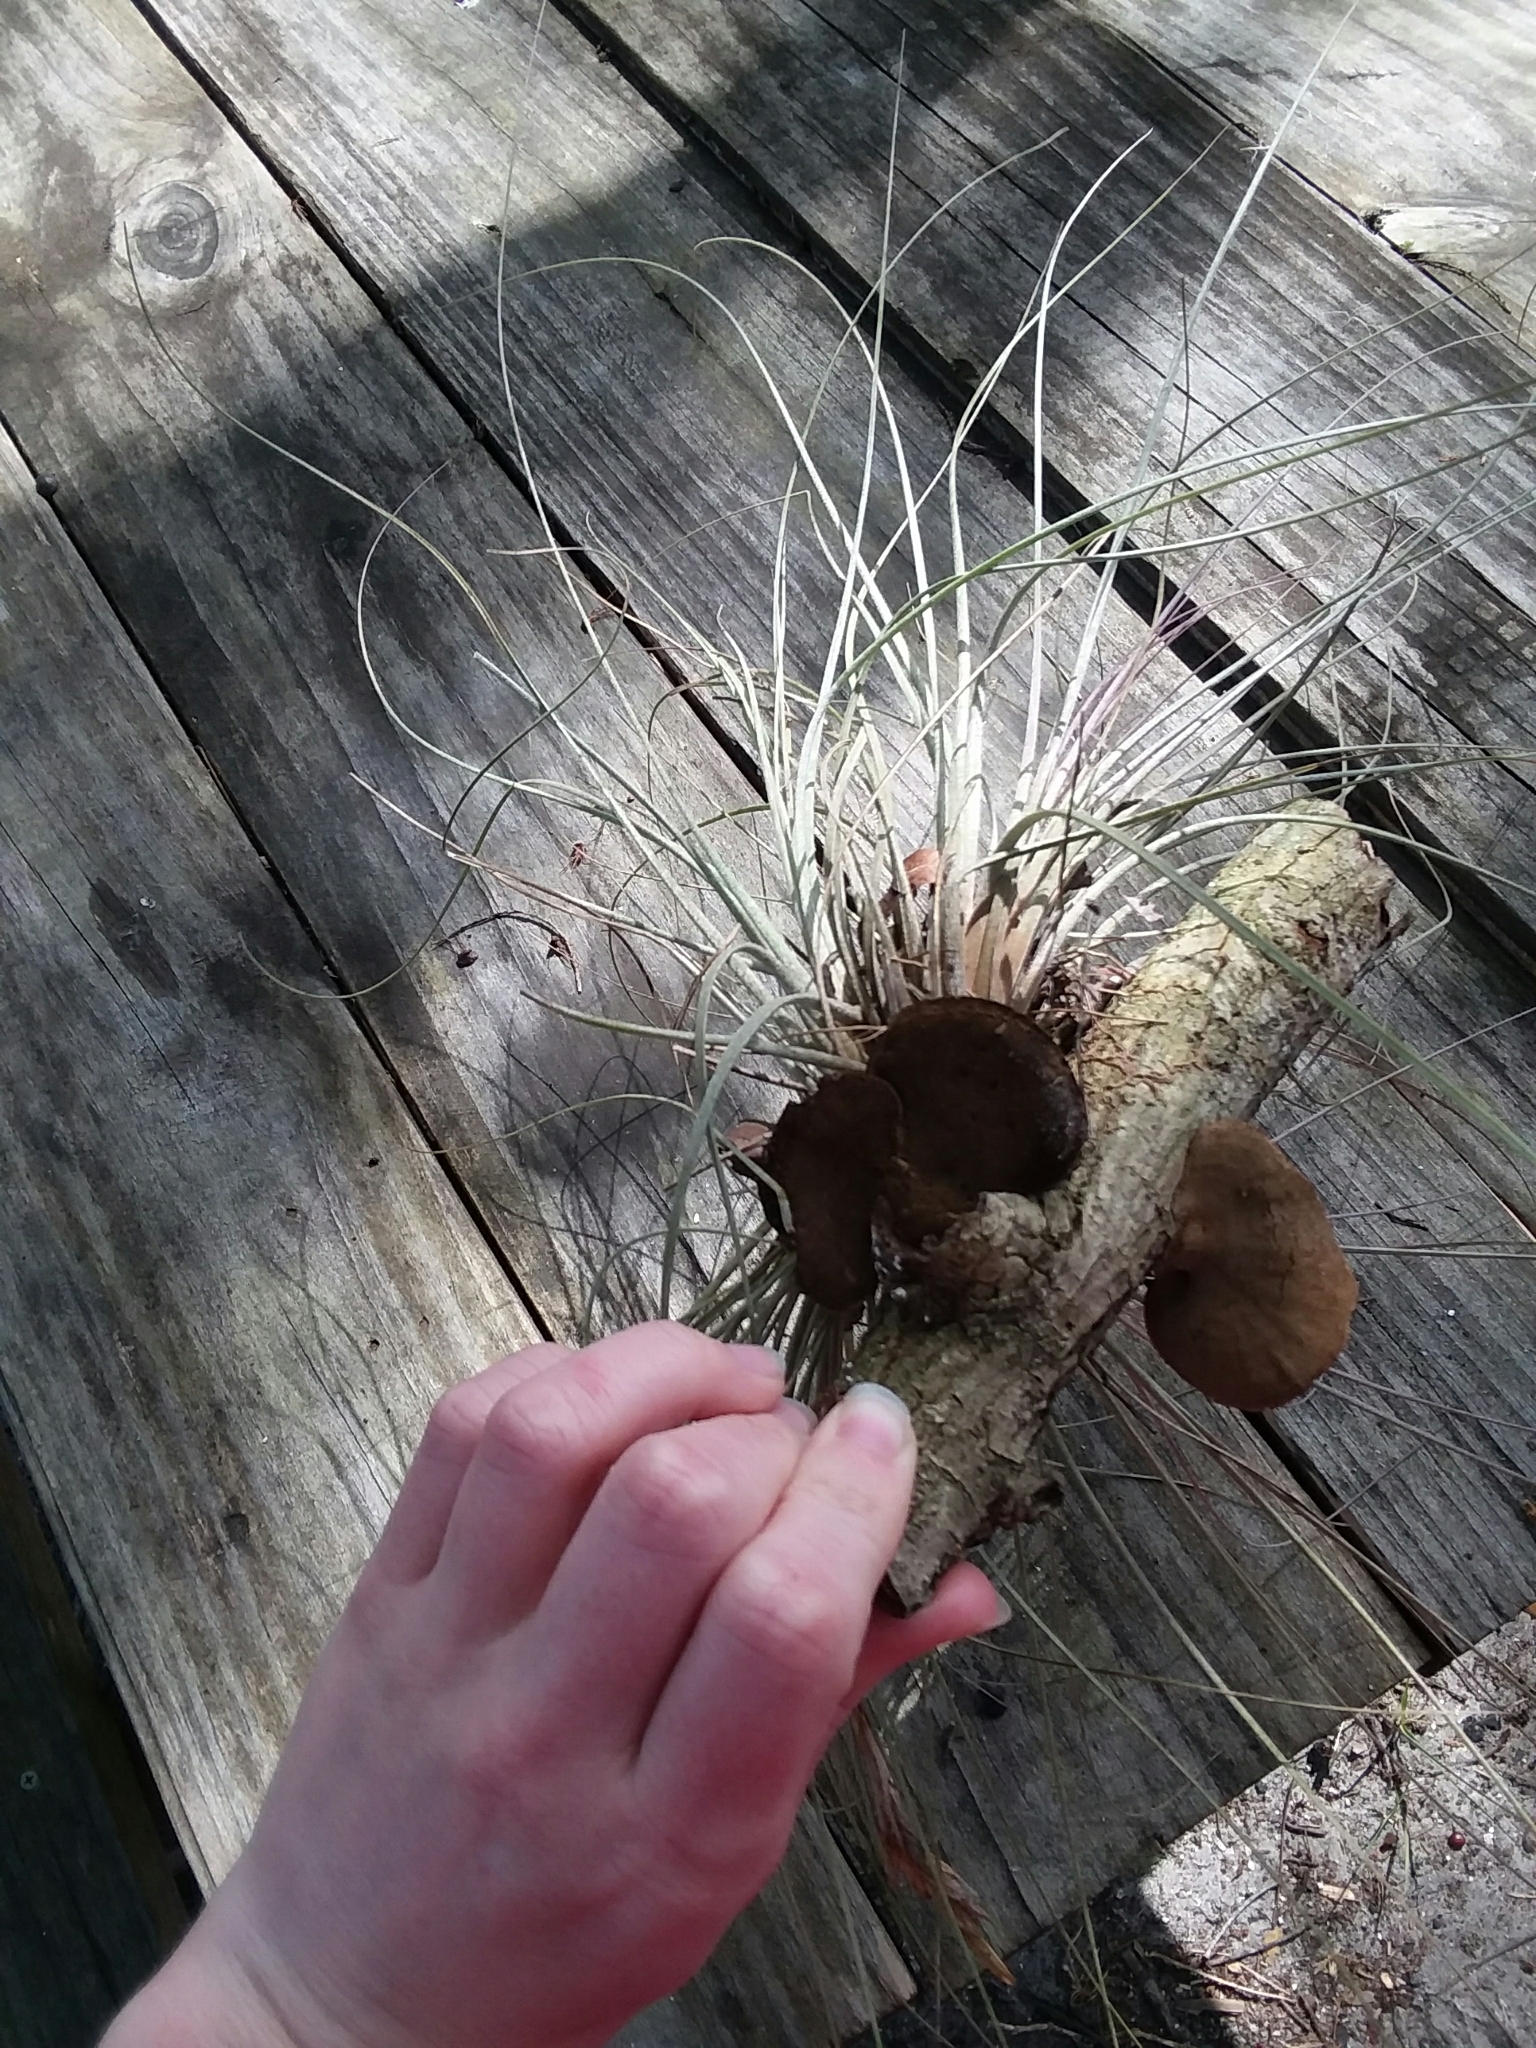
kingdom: Plantae
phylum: Tracheophyta
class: Liliopsida
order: Poales
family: Bromeliaceae
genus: Tillandsia
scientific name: Tillandsia bartramii
